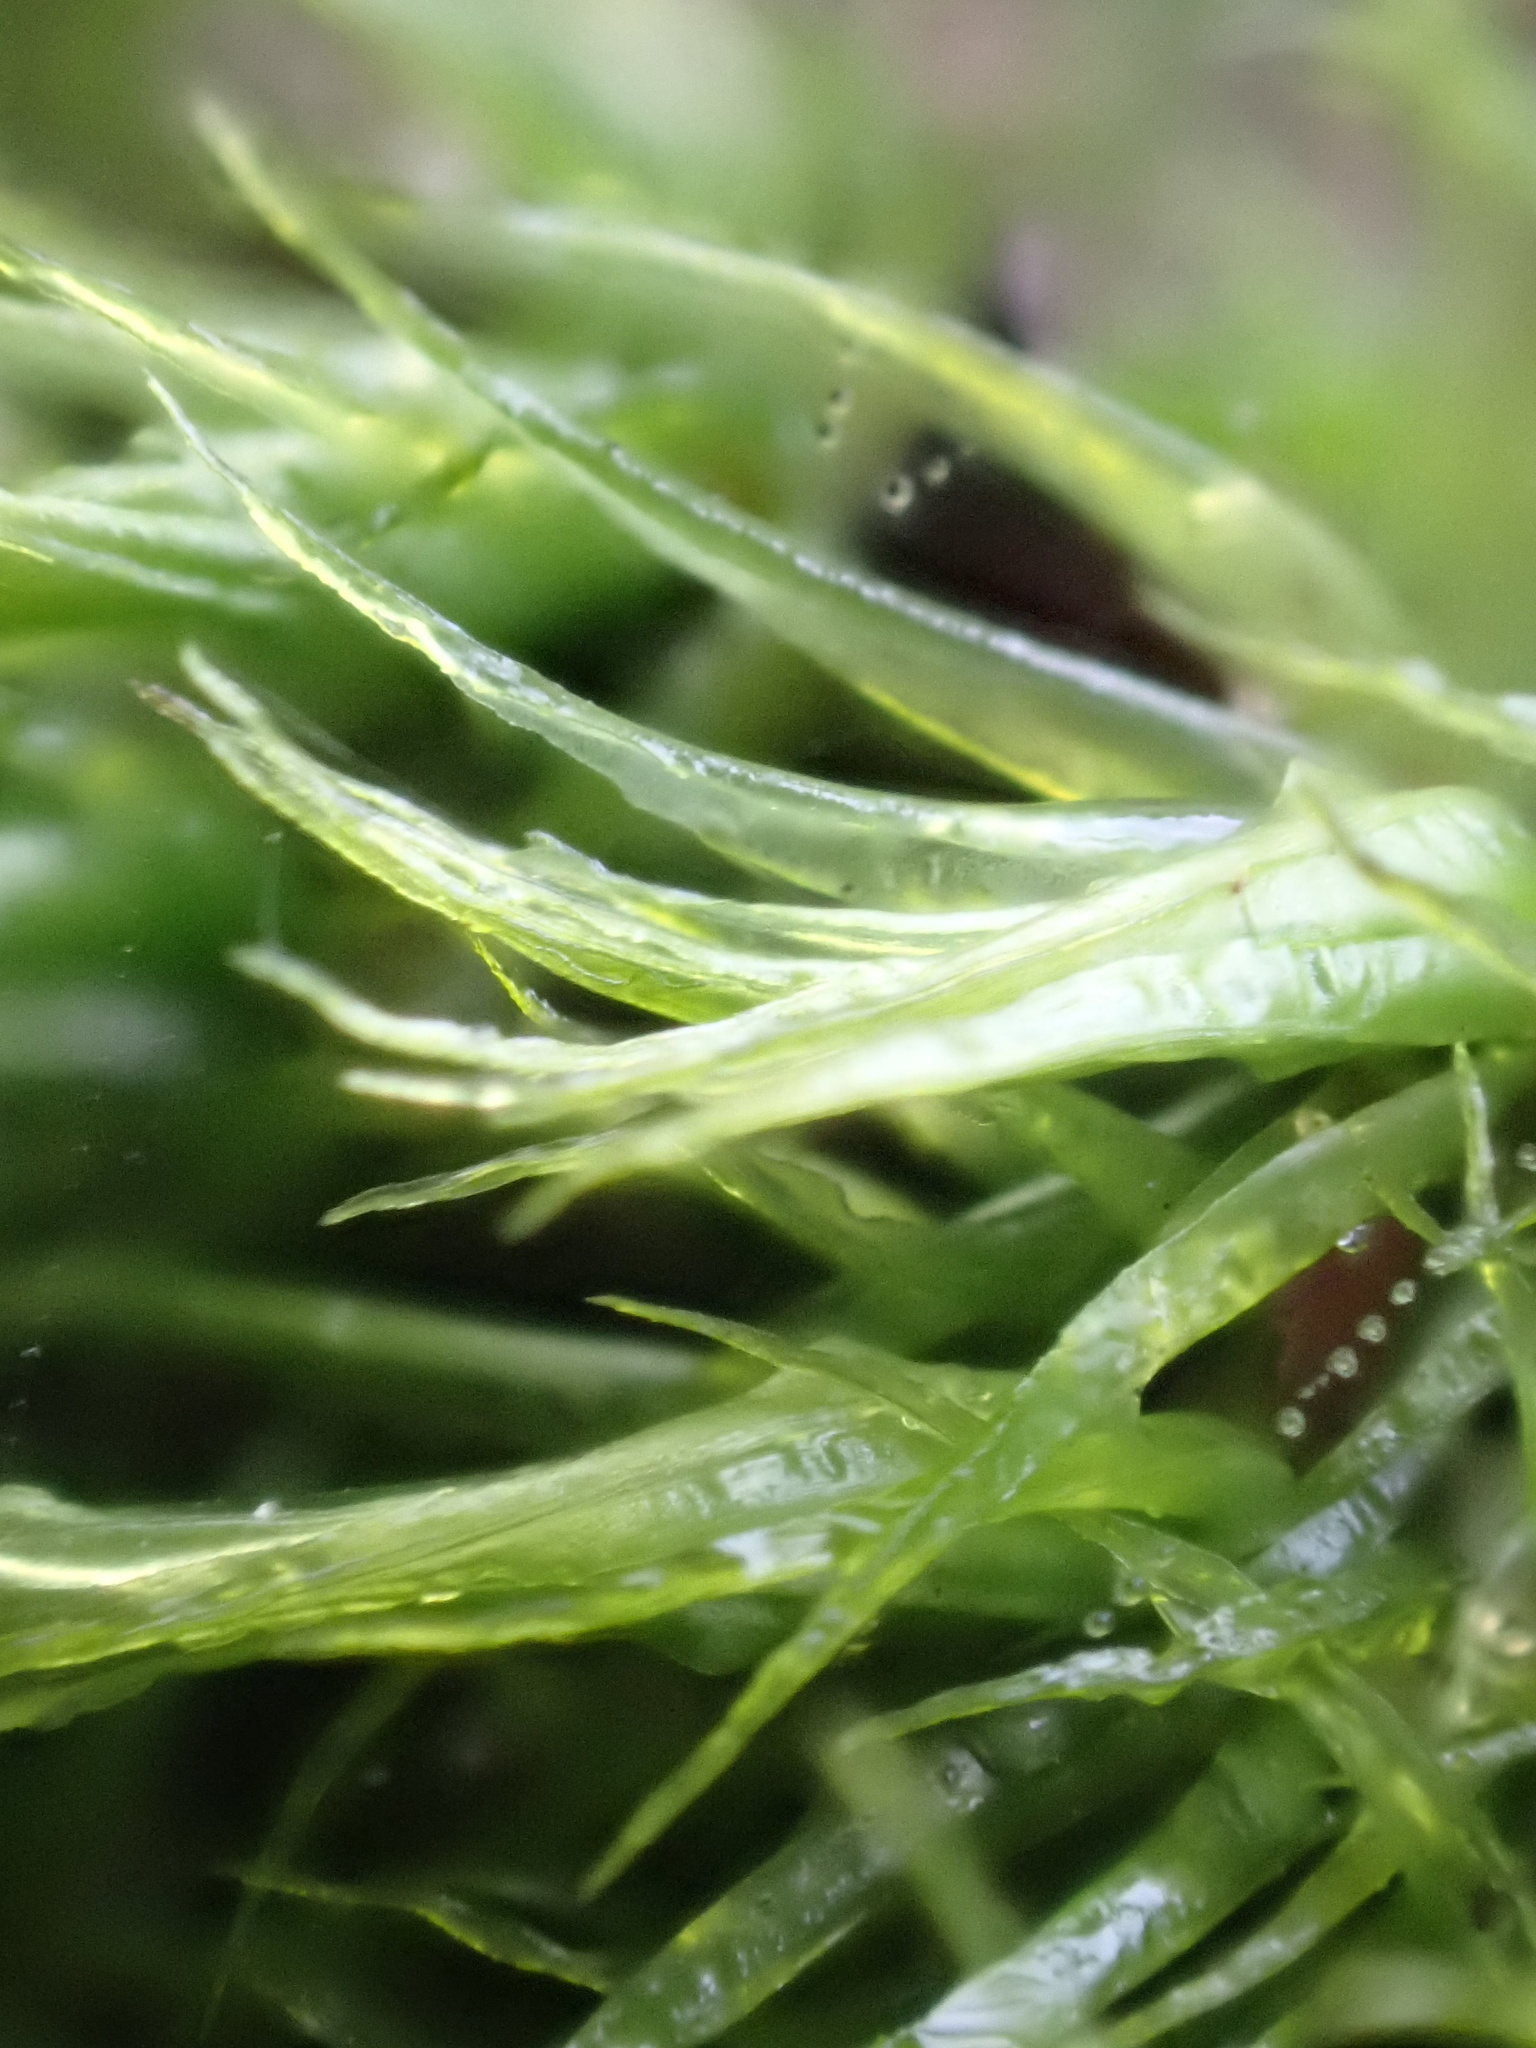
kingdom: Plantae
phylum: Bryophyta
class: Bryopsida
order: Dicranales
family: Dicranaceae
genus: Dicranum
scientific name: Dicranum scoparium
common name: Broom fork-moss
